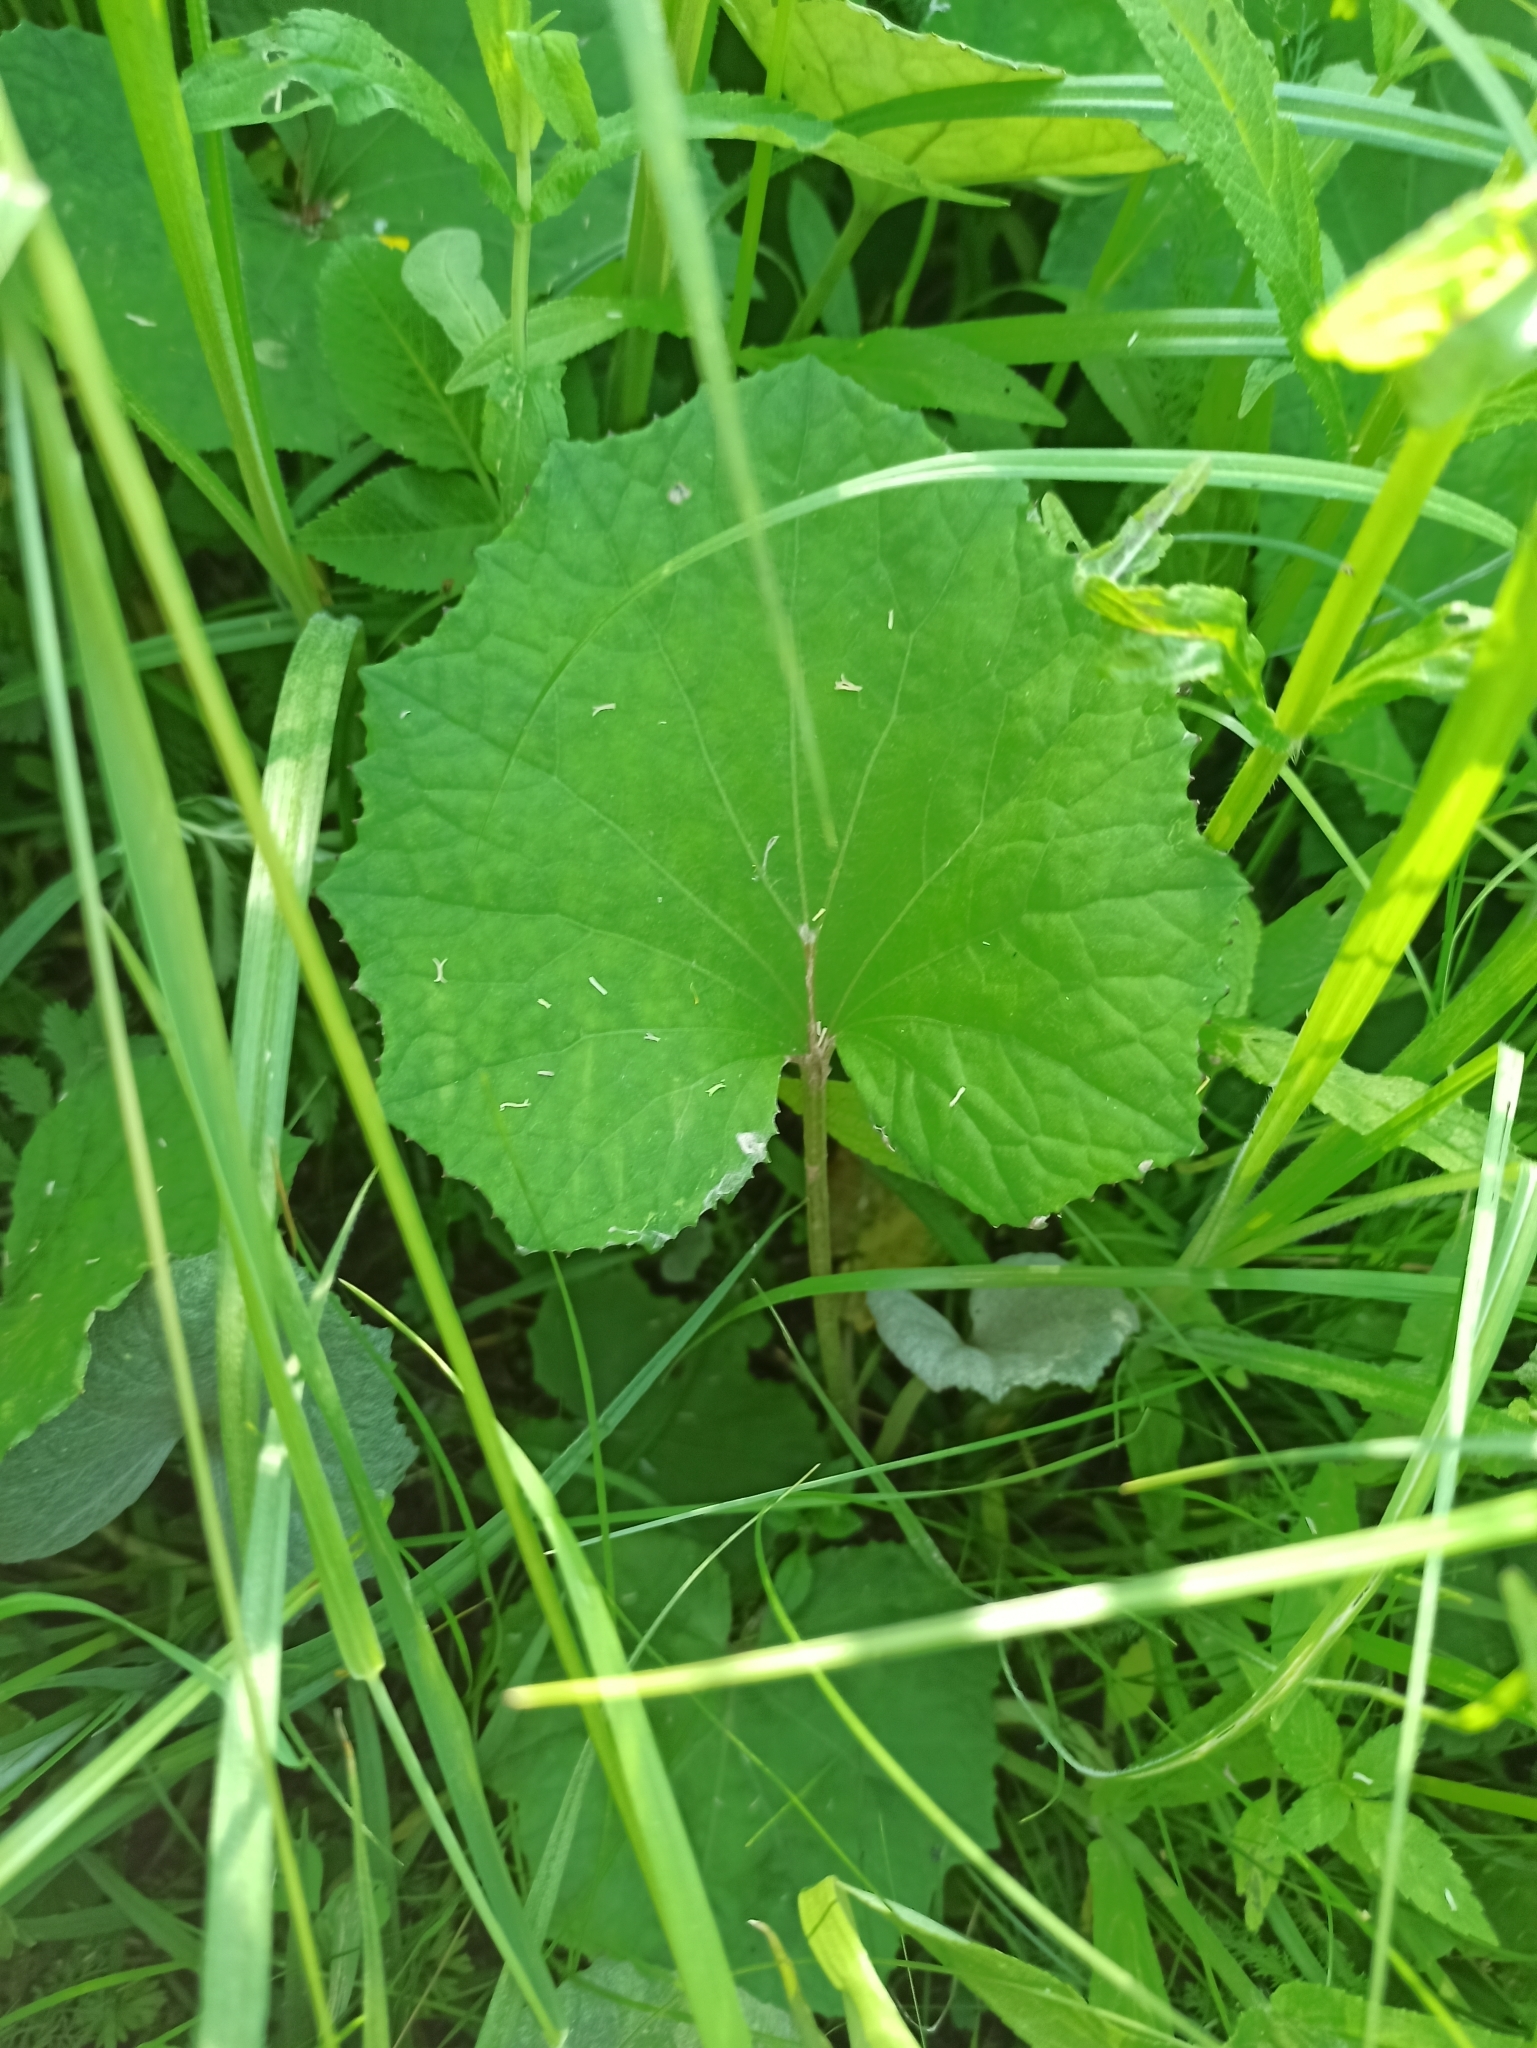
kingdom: Plantae
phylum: Tracheophyta
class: Magnoliopsida
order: Asterales
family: Asteraceae
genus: Tussilago
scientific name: Tussilago farfara
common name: Coltsfoot
